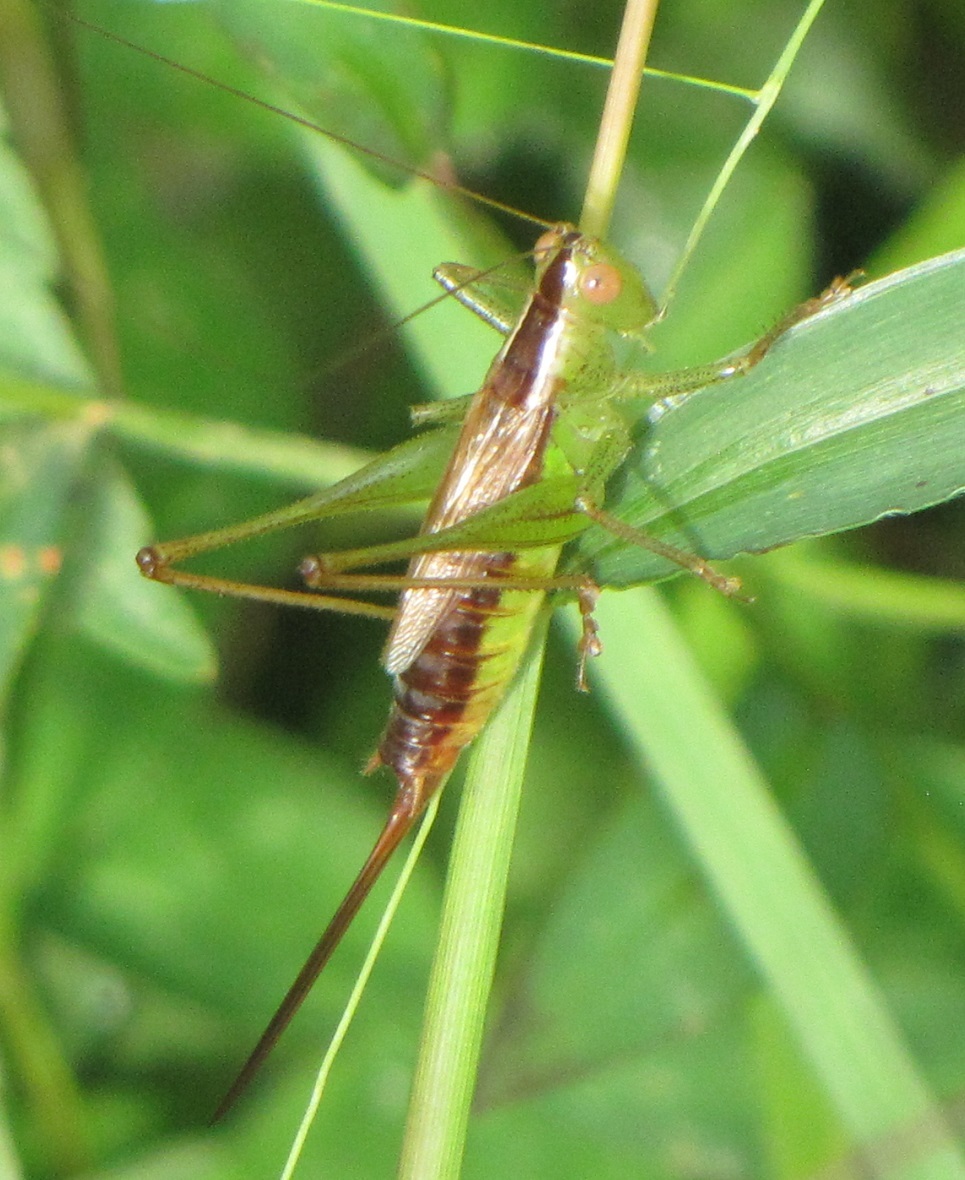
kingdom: Animalia
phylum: Arthropoda
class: Insecta
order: Orthoptera
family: Tettigoniidae
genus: Conocephalus
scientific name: Conocephalus brevipennis
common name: Short-winged meadow katydid
